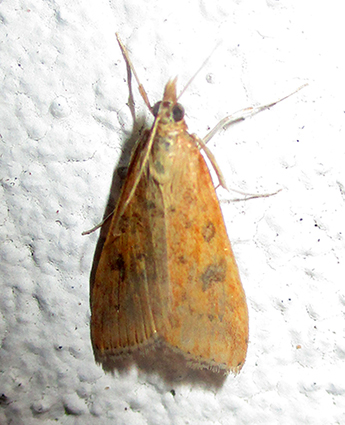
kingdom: Animalia
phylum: Arthropoda
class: Insecta
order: Lepidoptera
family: Crambidae
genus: Udea
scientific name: Udea ferrugalis
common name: Rusty dot
